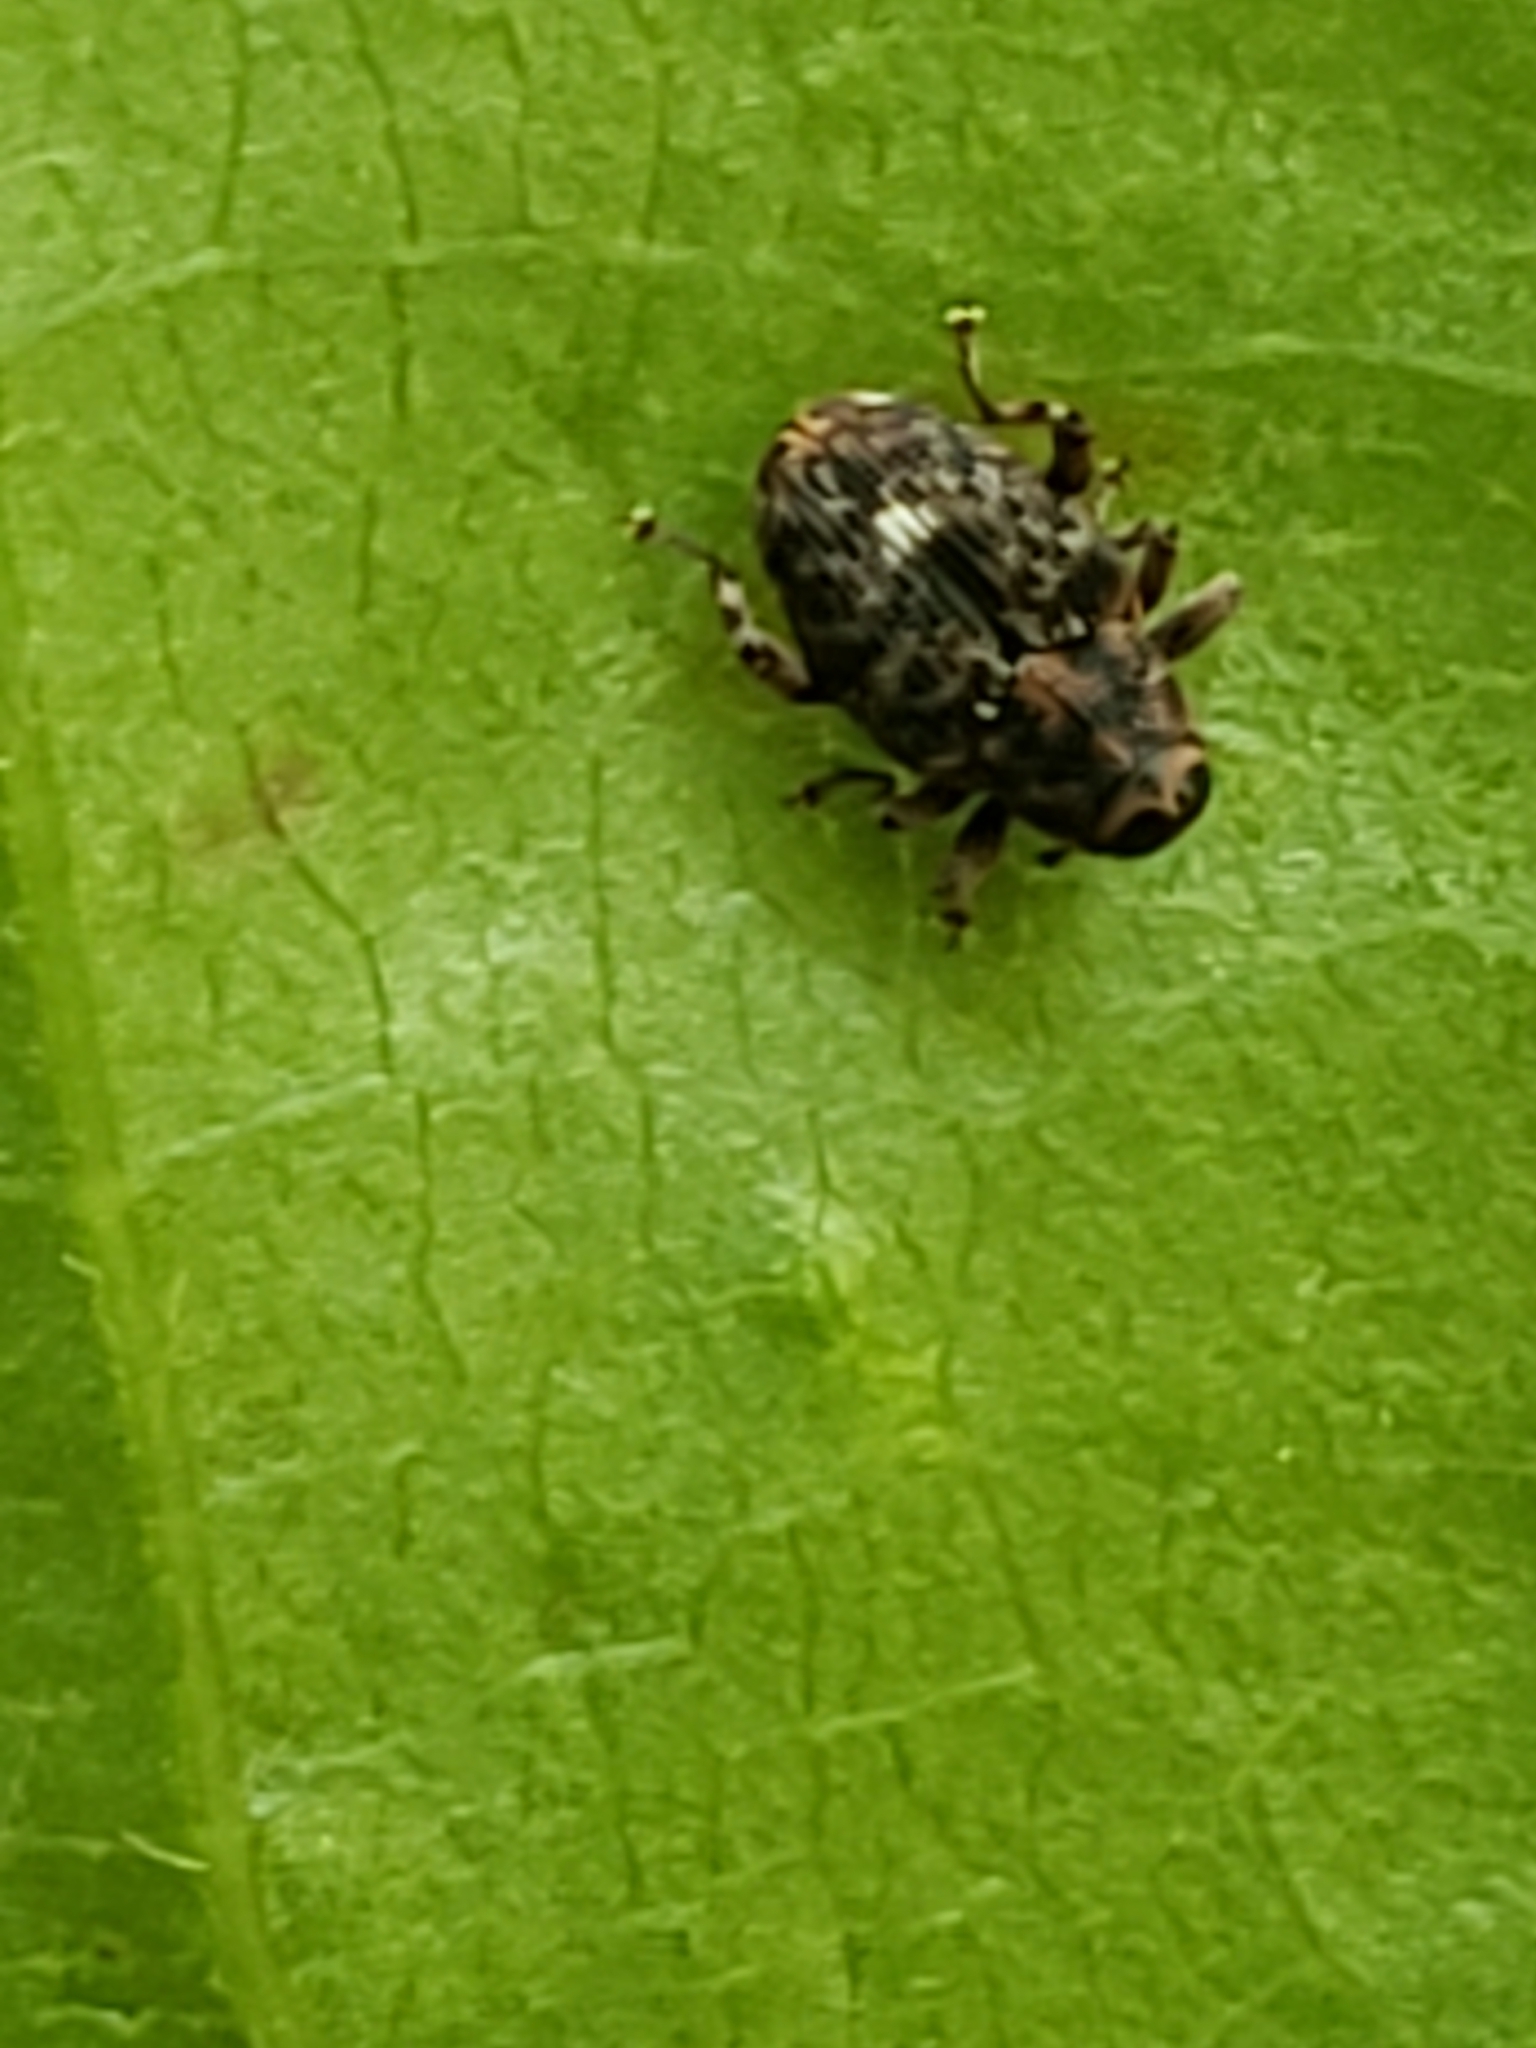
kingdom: Animalia
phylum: Arthropoda
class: Insecta
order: Coleoptera
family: Curculionidae
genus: Lechriops
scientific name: Lechriops oculatus
